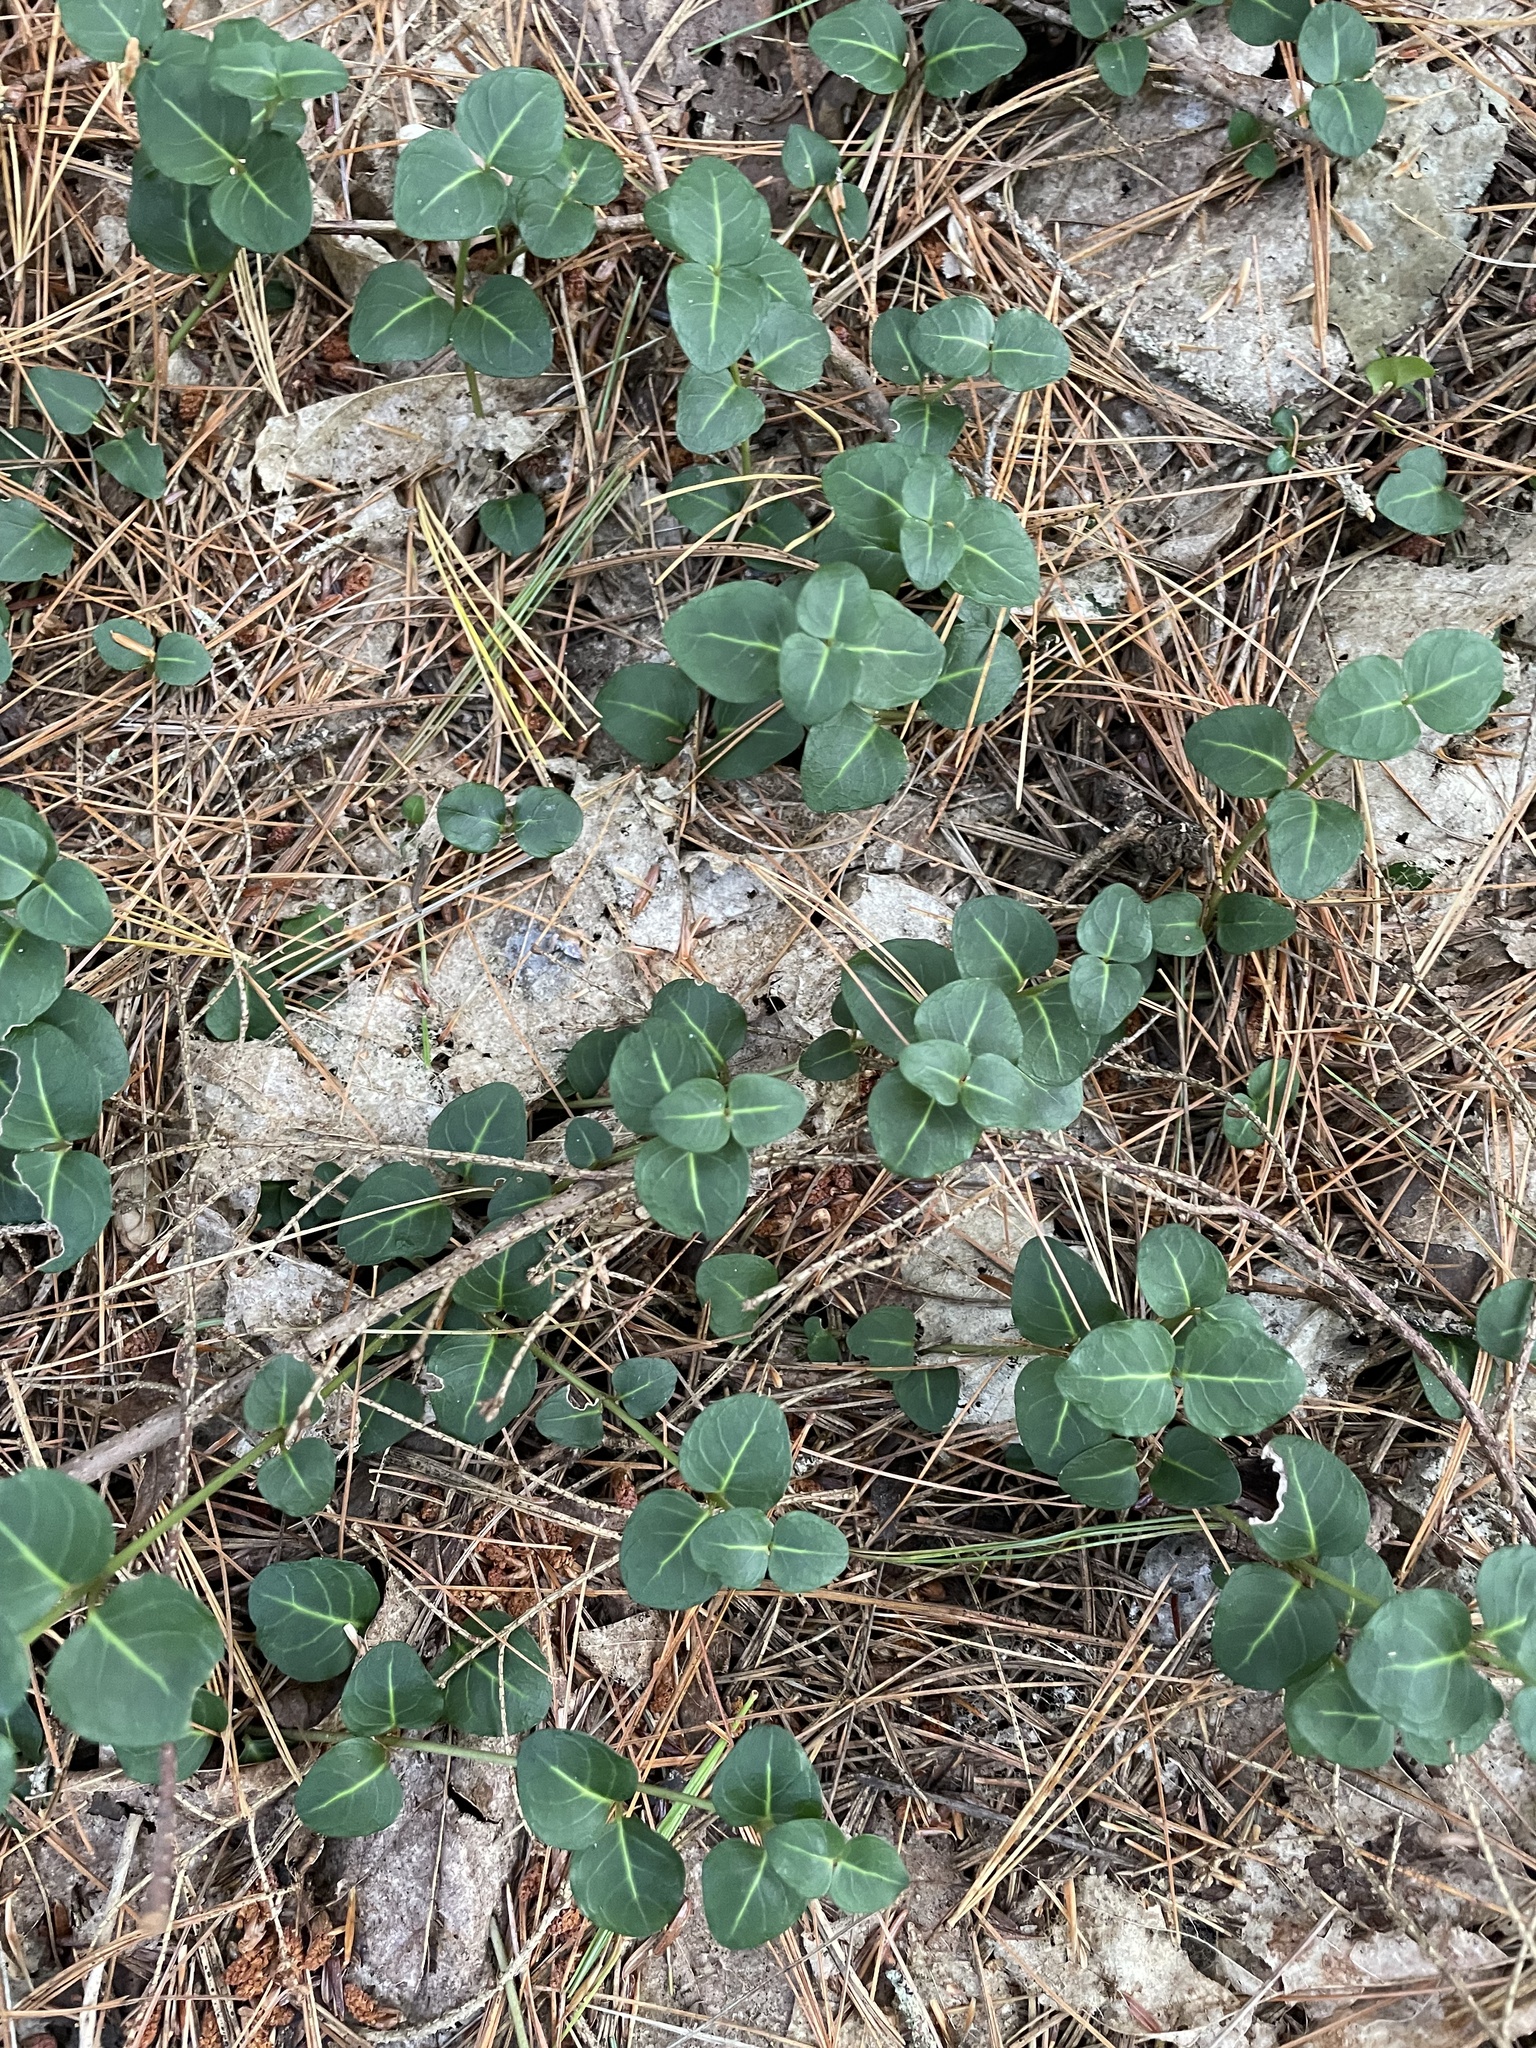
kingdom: Plantae
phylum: Tracheophyta
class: Magnoliopsida
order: Gentianales
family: Rubiaceae
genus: Mitchella
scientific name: Mitchella repens
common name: Partridge-berry
